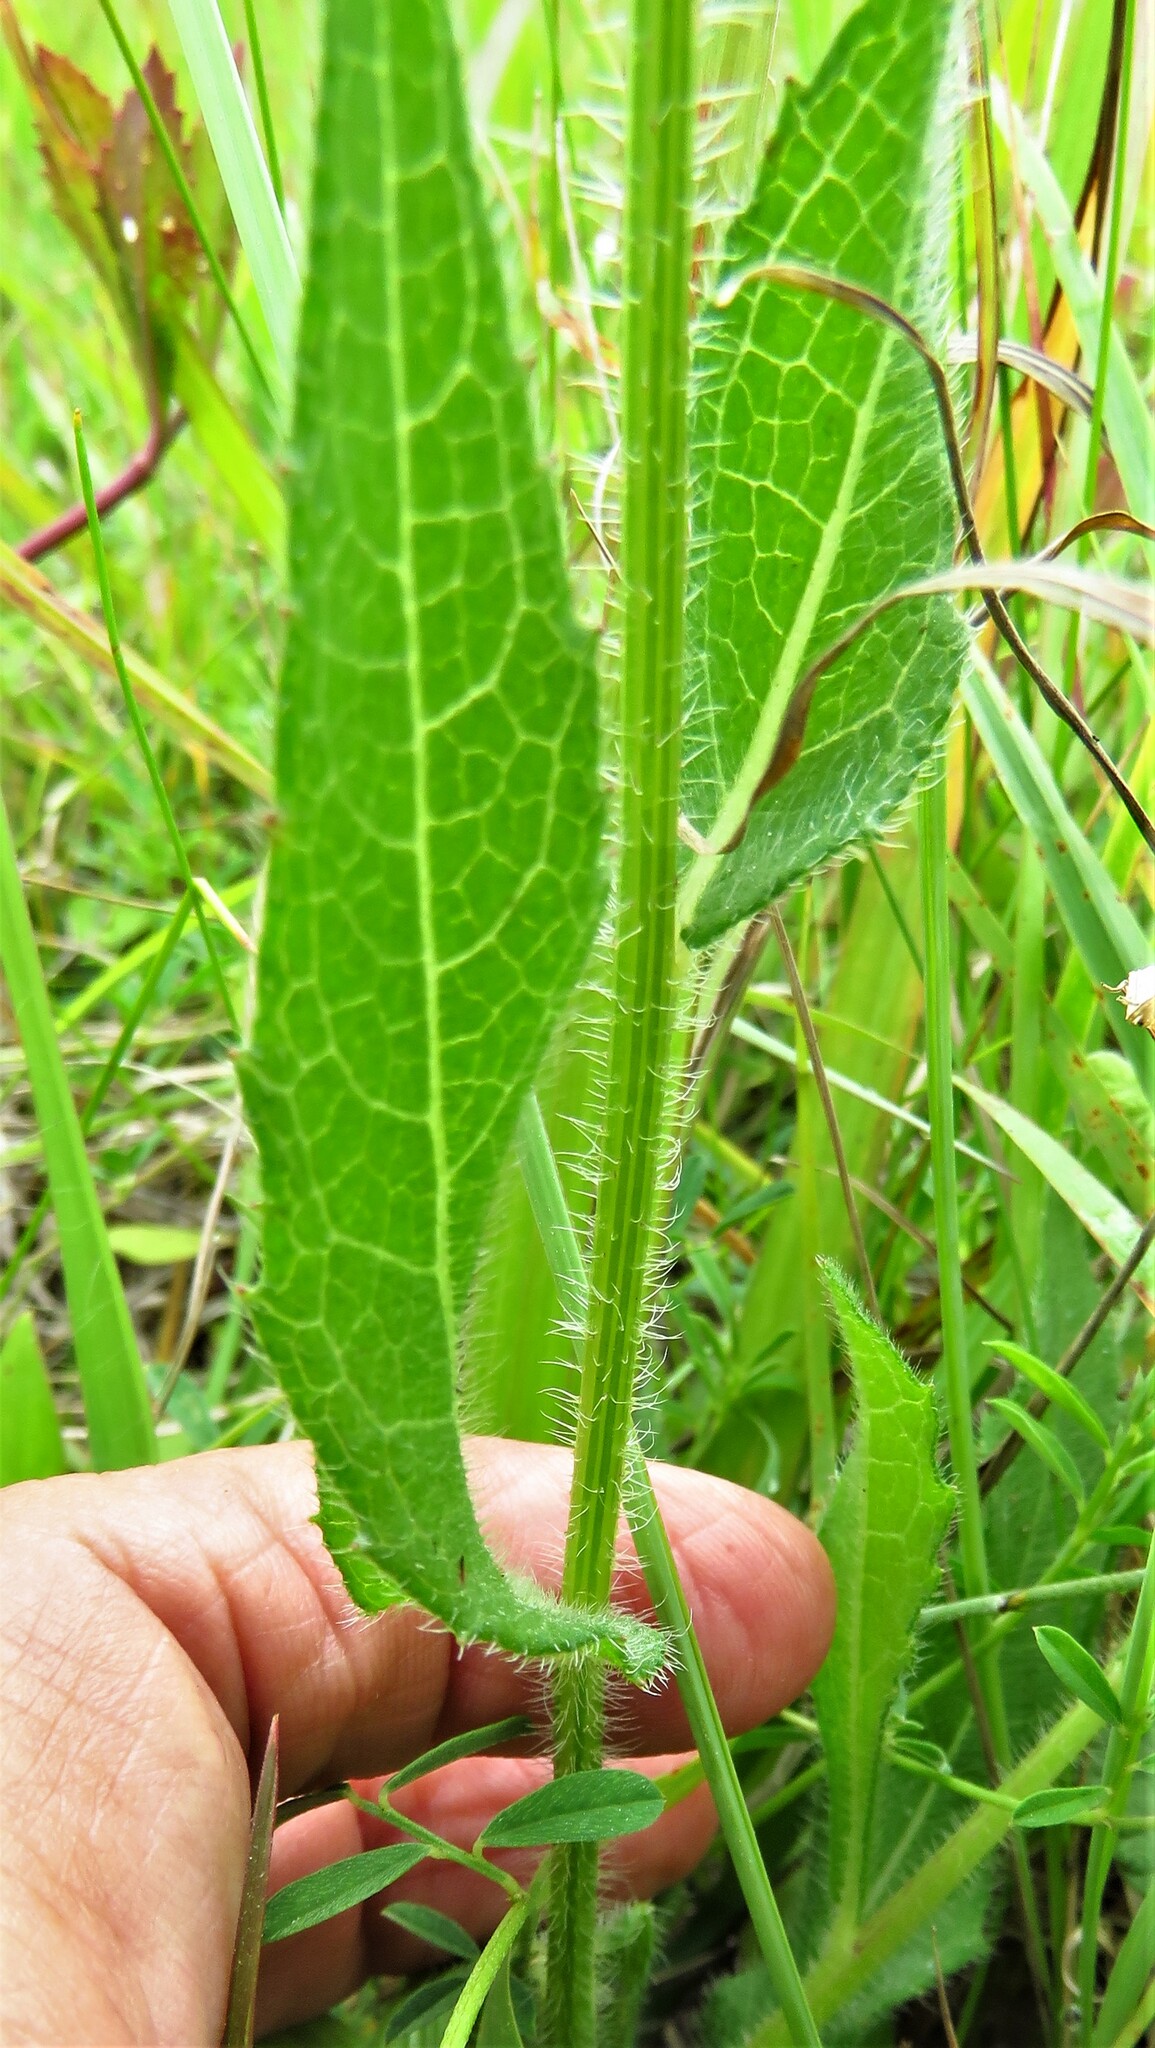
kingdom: Plantae
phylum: Tracheophyta
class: Magnoliopsida
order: Asterales
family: Asteraceae
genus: Rudbeckia
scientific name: Rudbeckia hirta
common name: Black-eyed-susan
